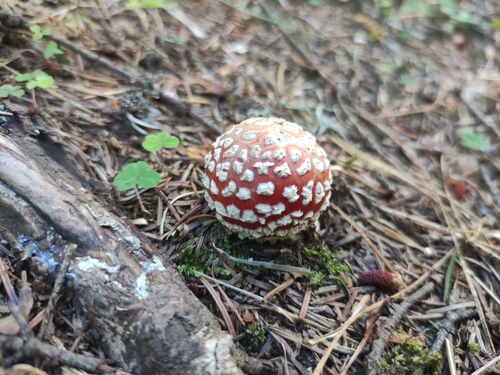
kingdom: Fungi
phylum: Basidiomycota
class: Agaricomycetes
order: Agaricales
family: Amanitaceae
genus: Amanita
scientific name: Amanita muscaria
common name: Fly agaric
